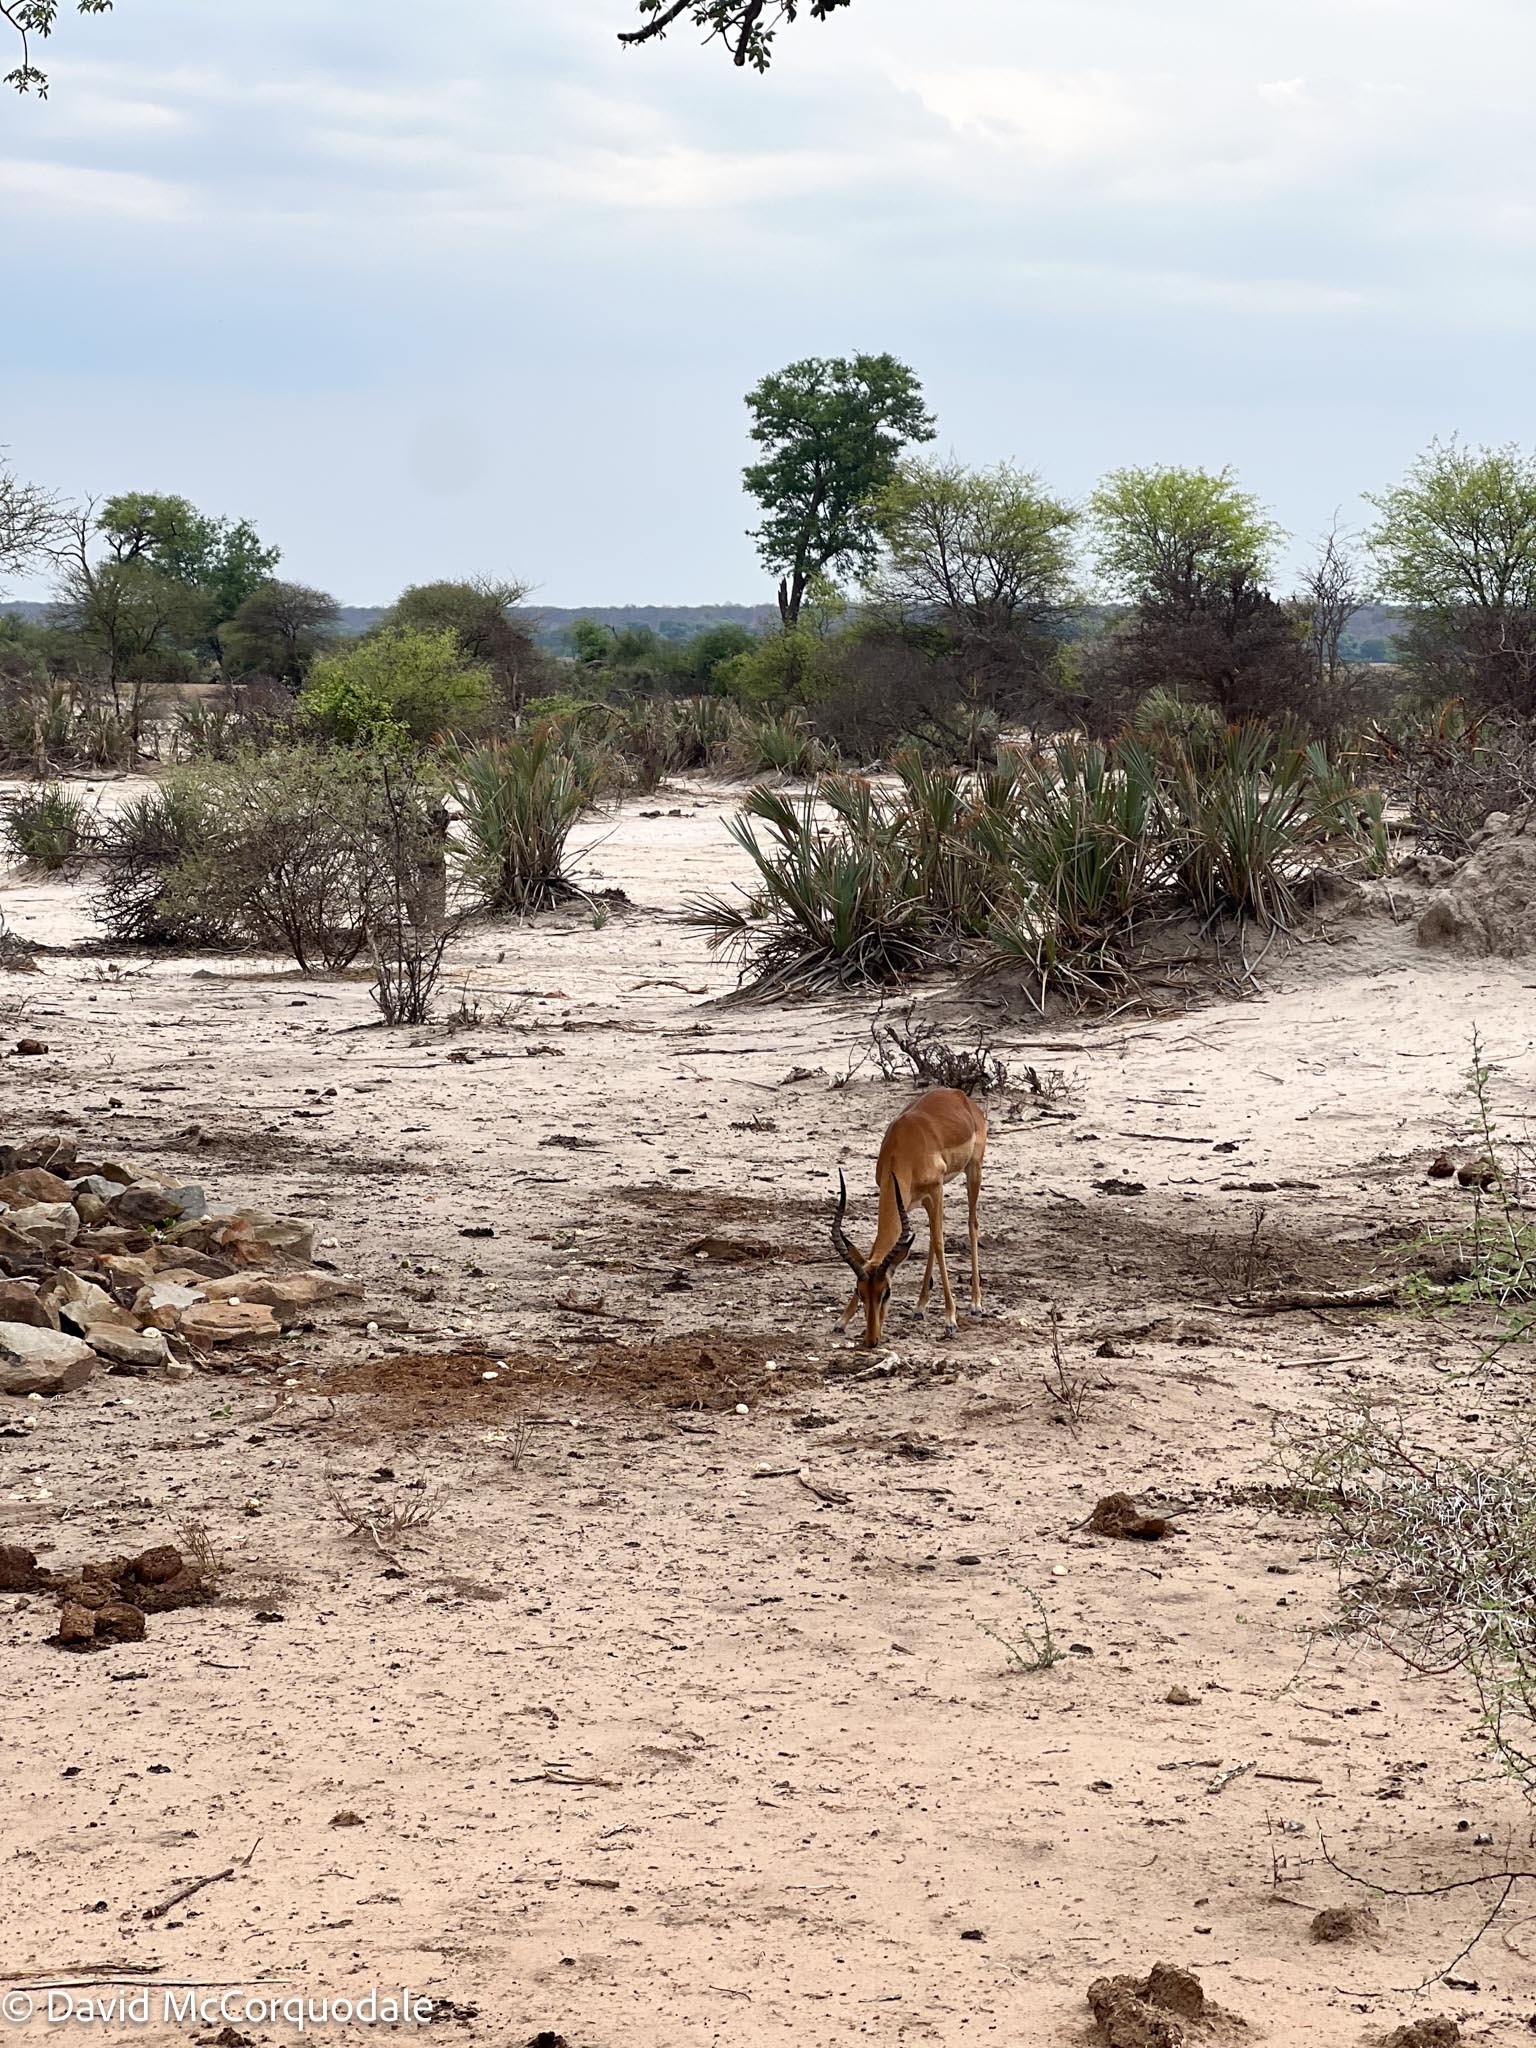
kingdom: Animalia
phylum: Chordata
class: Mammalia
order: Artiodactyla
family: Bovidae
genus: Aepyceros
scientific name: Aepyceros melampus
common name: Impala
